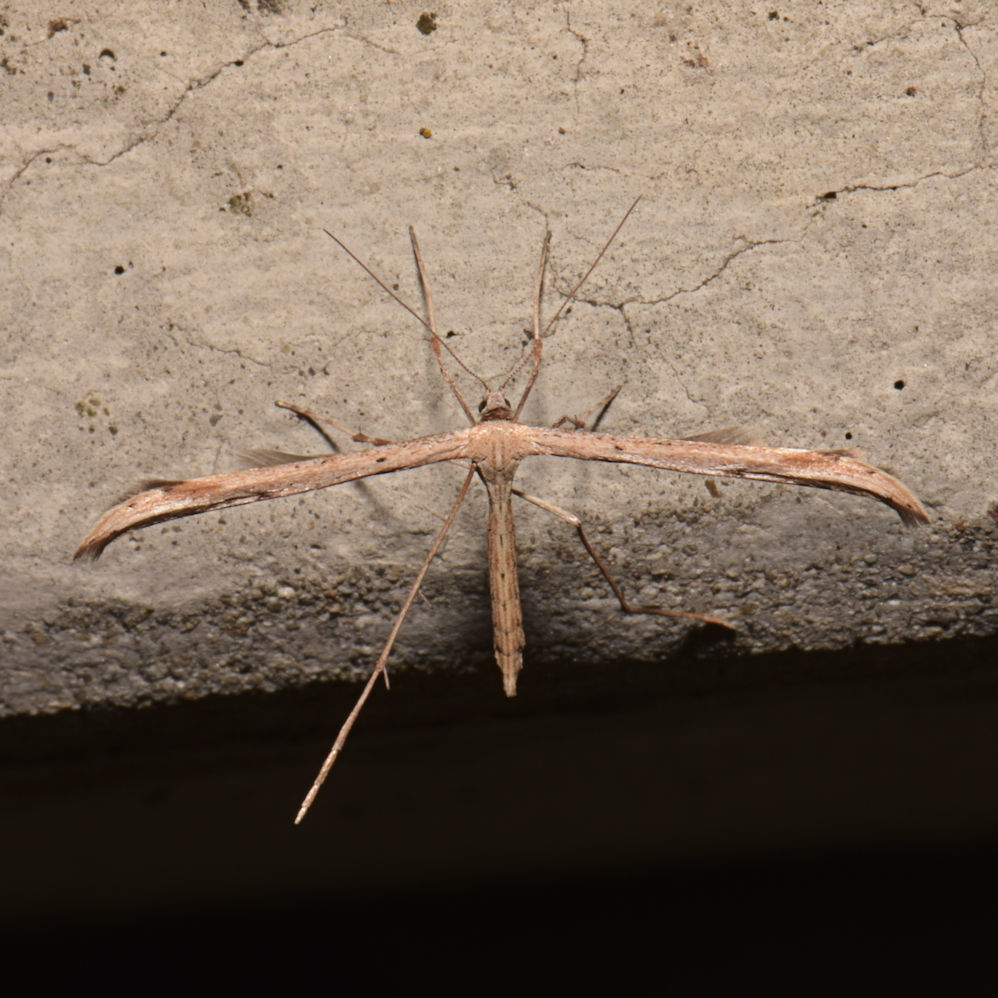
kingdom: Animalia
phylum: Arthropoda
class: Insecta
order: Lepidoptera
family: Pterophoridae
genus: Emmelina
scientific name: Emmelina monodactyla
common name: Common plume
